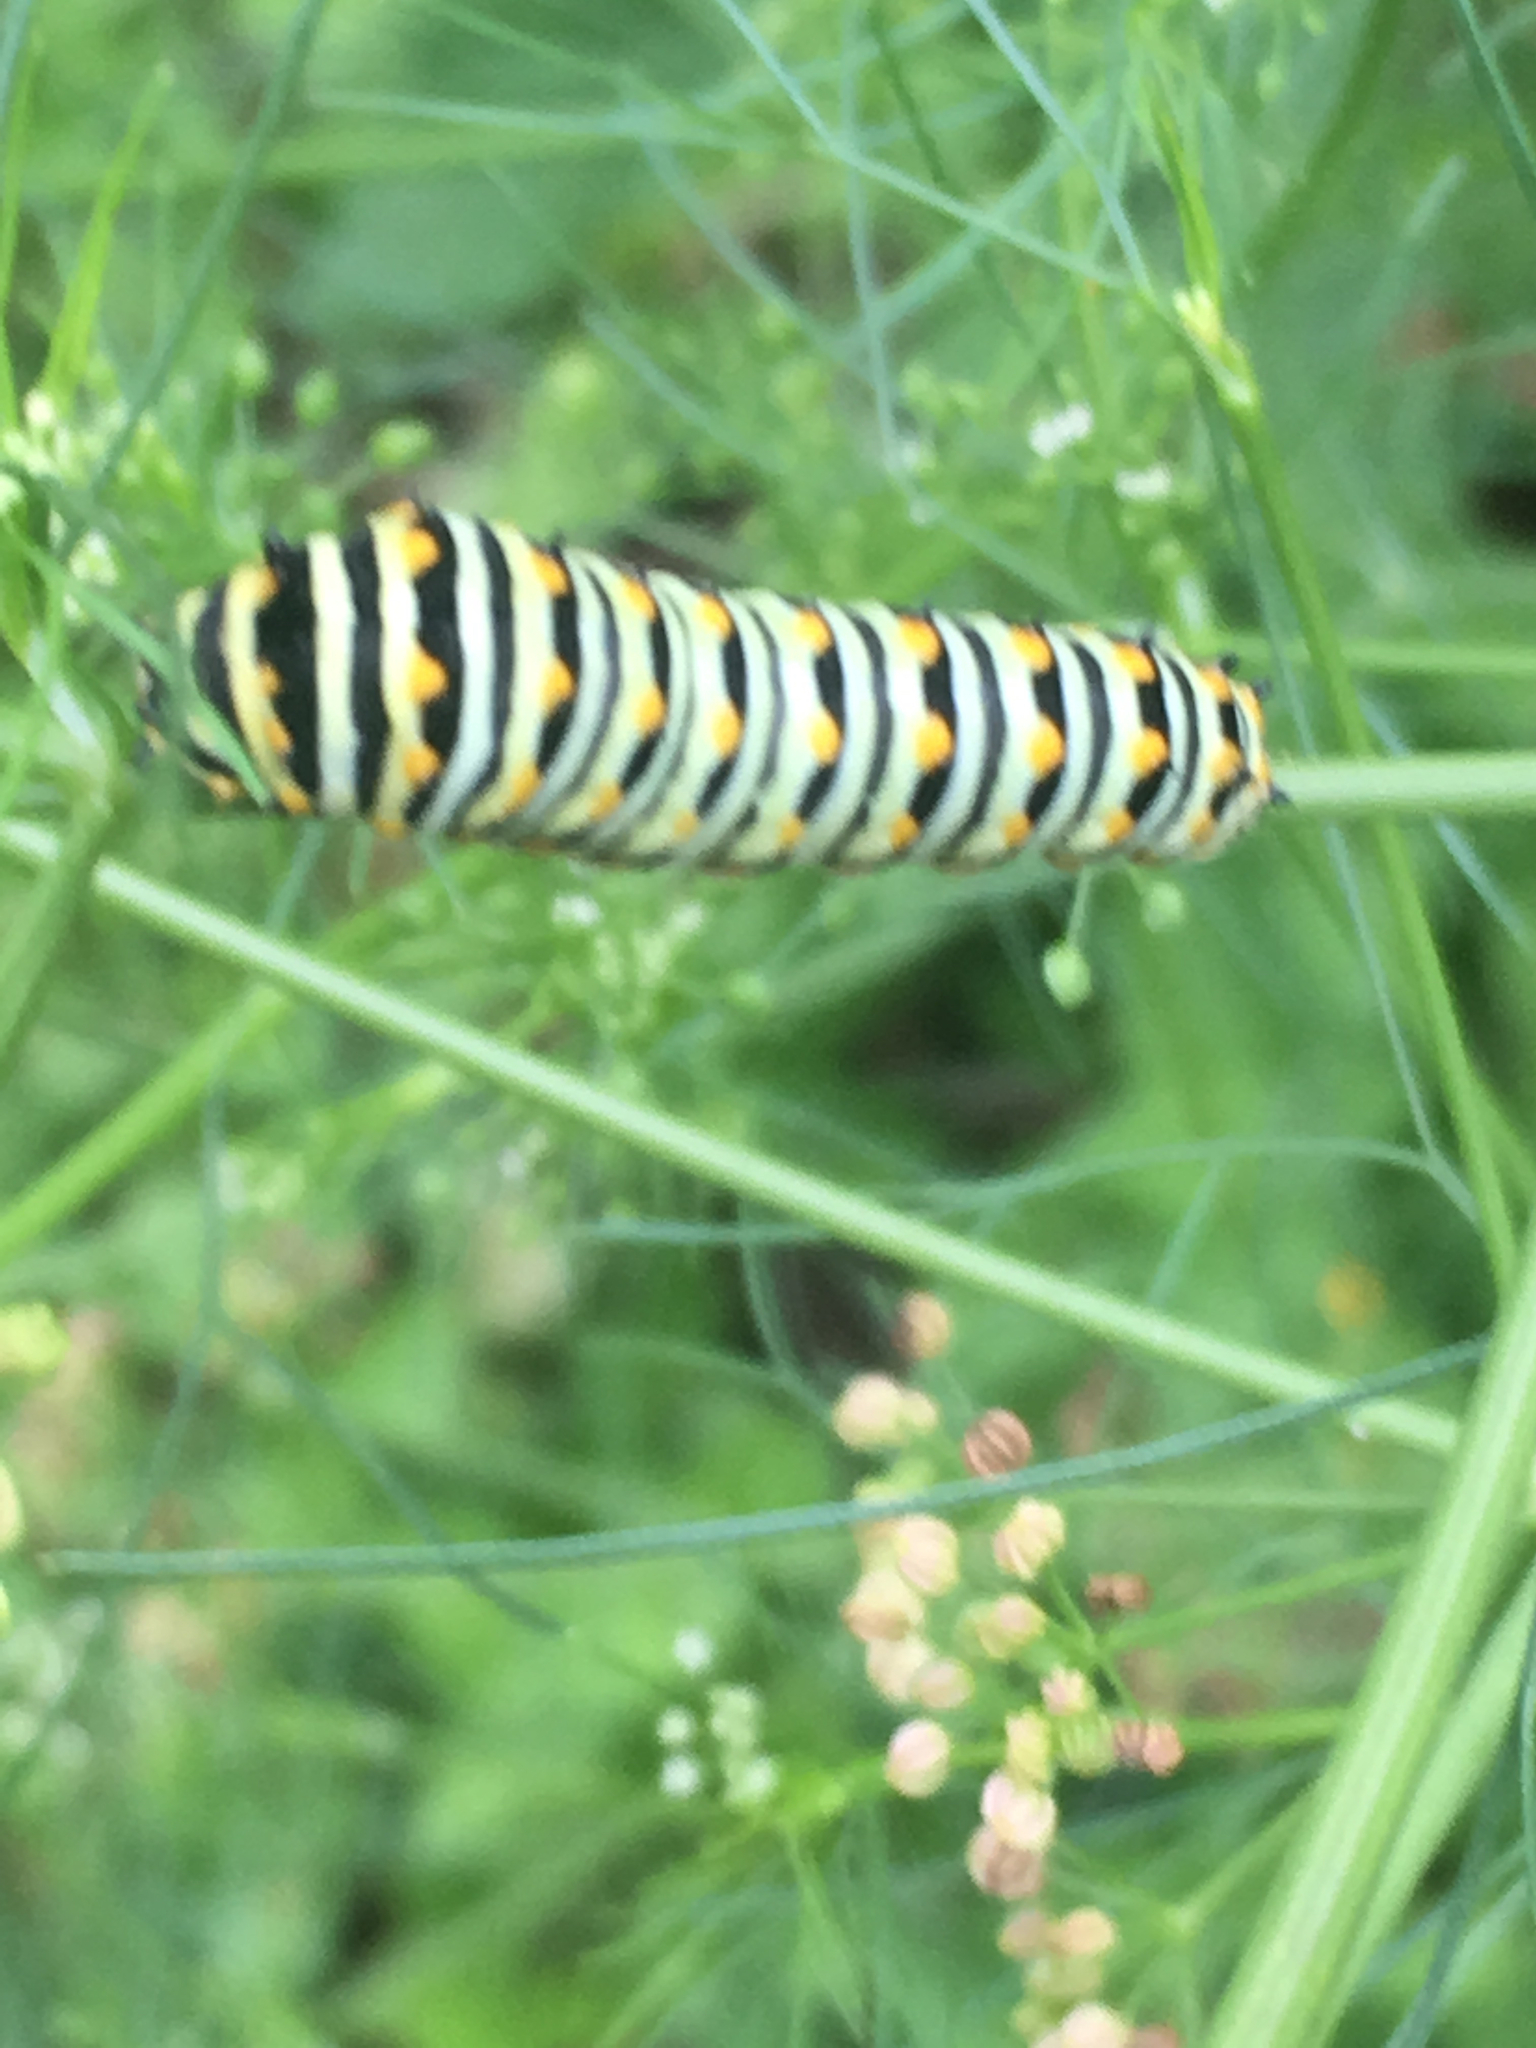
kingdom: Animalia
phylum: Arthropoda
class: Insecta
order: Lepidoptera
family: Papilionidae
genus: Papilio
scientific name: Papilio polyxenes
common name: Black swallowtail
